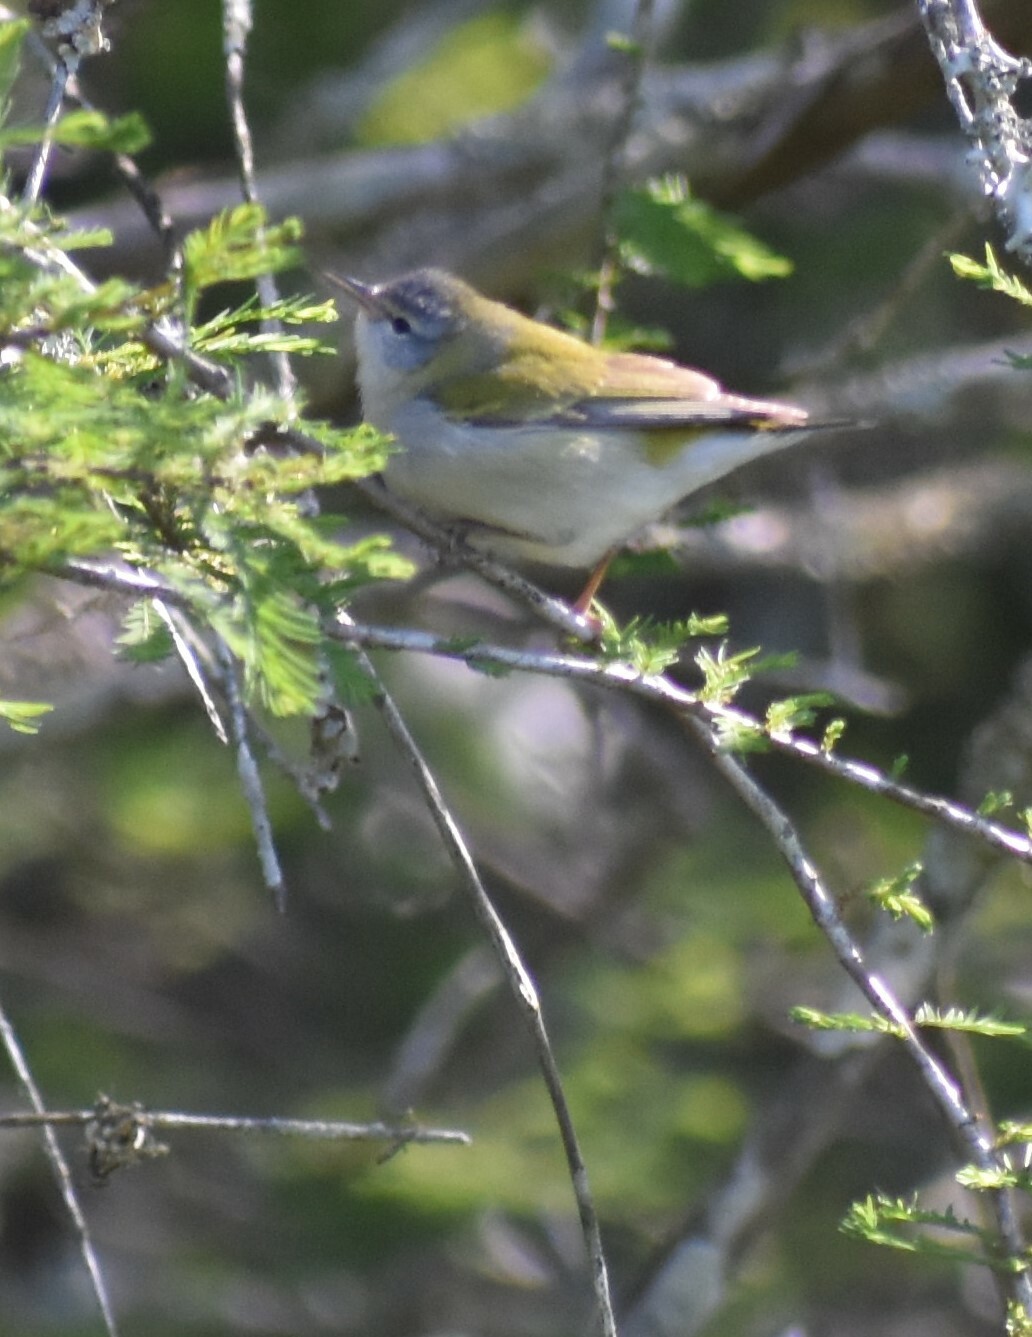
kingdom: Animalia
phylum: Chordata
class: Aves
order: Passeriformes
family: Parulidae
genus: Leiothlypis
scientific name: Leiothlypis peregrina
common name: Tennessee warbler
